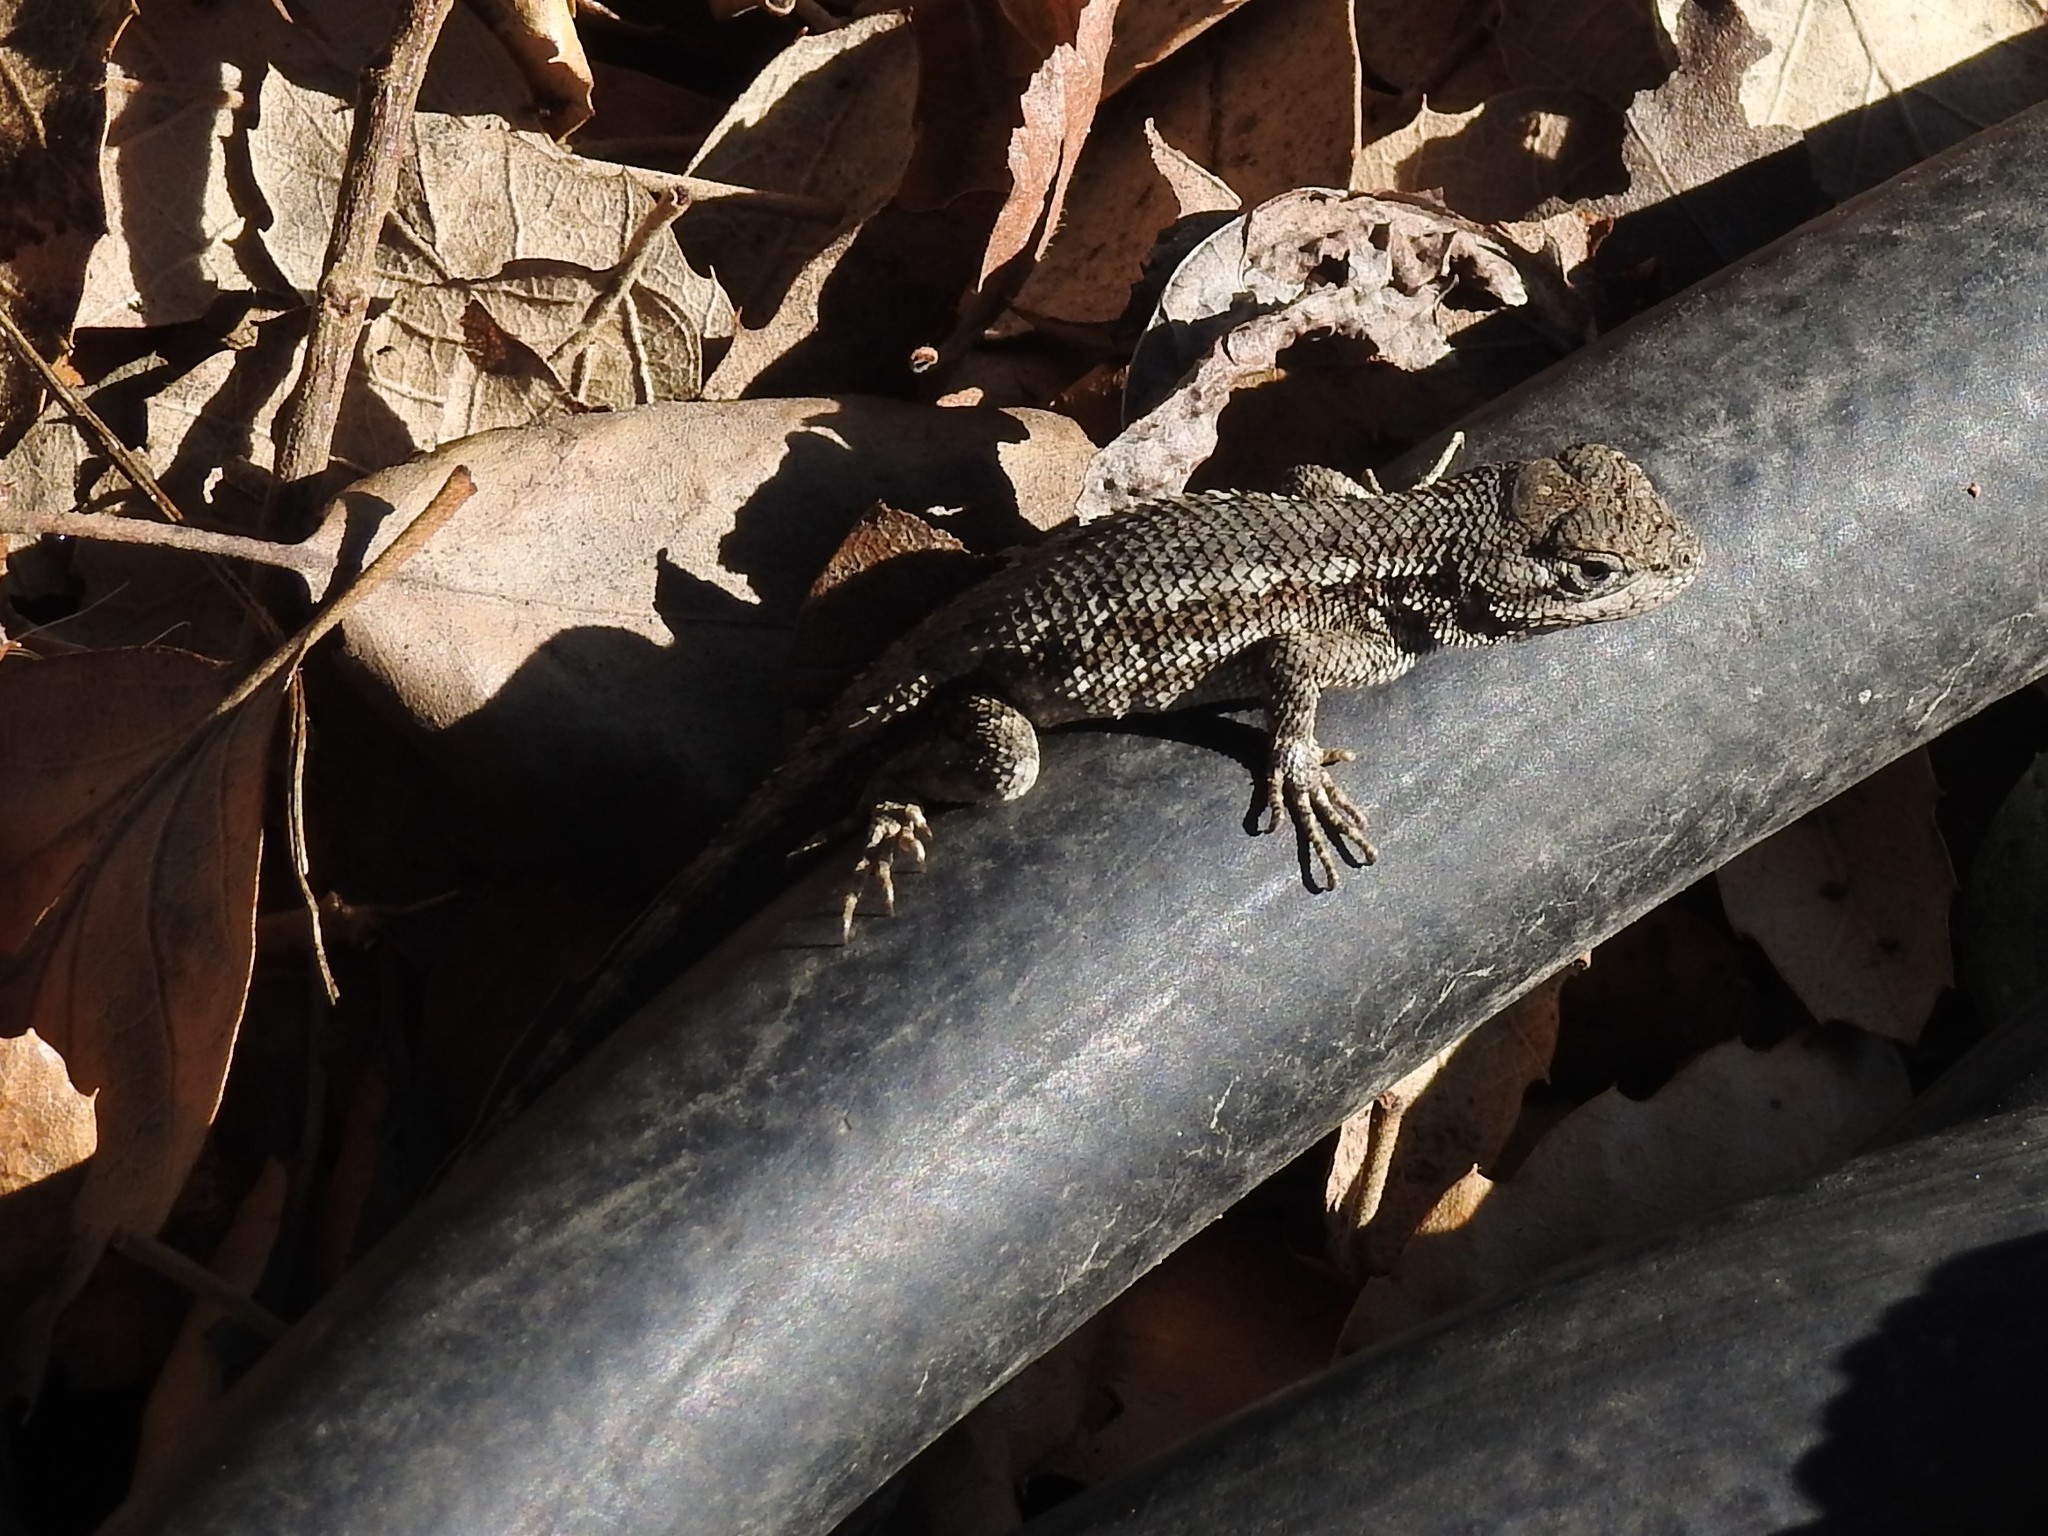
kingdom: Animalia
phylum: Chordata
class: Squamata
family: Phrynosomatidae
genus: Sceloporus
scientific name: Sceloporus occidentalis
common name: Western fence lizard
